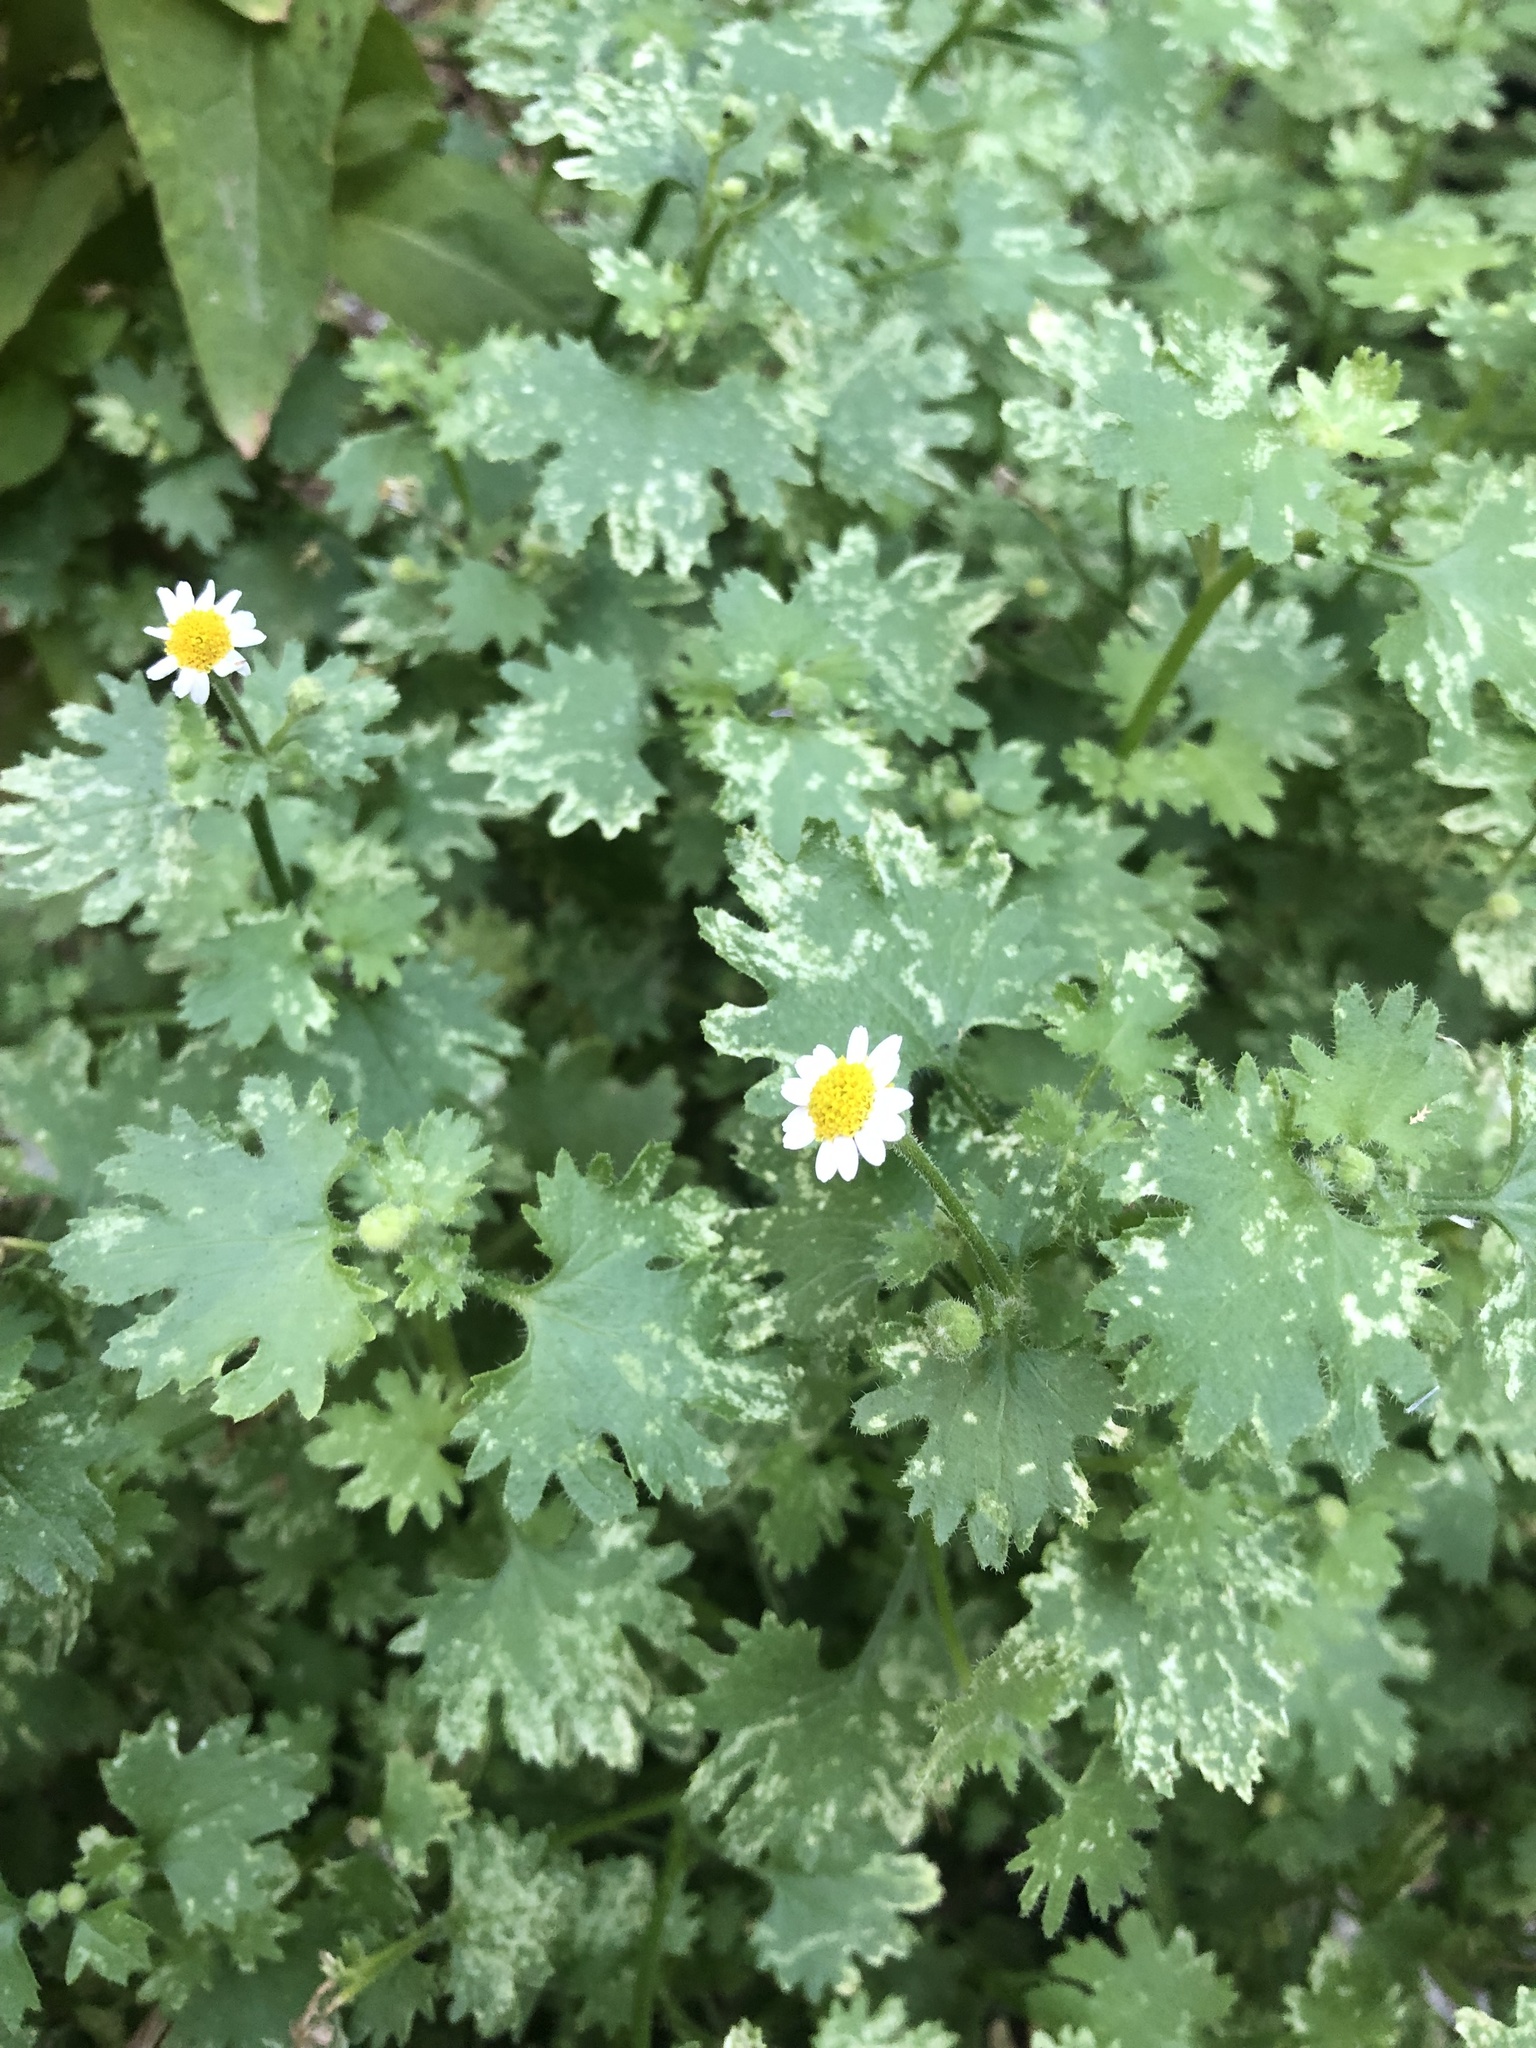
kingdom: Plantae
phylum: Tracheophyta
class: Magnoliopsida
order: Asterales
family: Asteraceae
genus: Laphamia
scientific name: Laphamia emoryi
